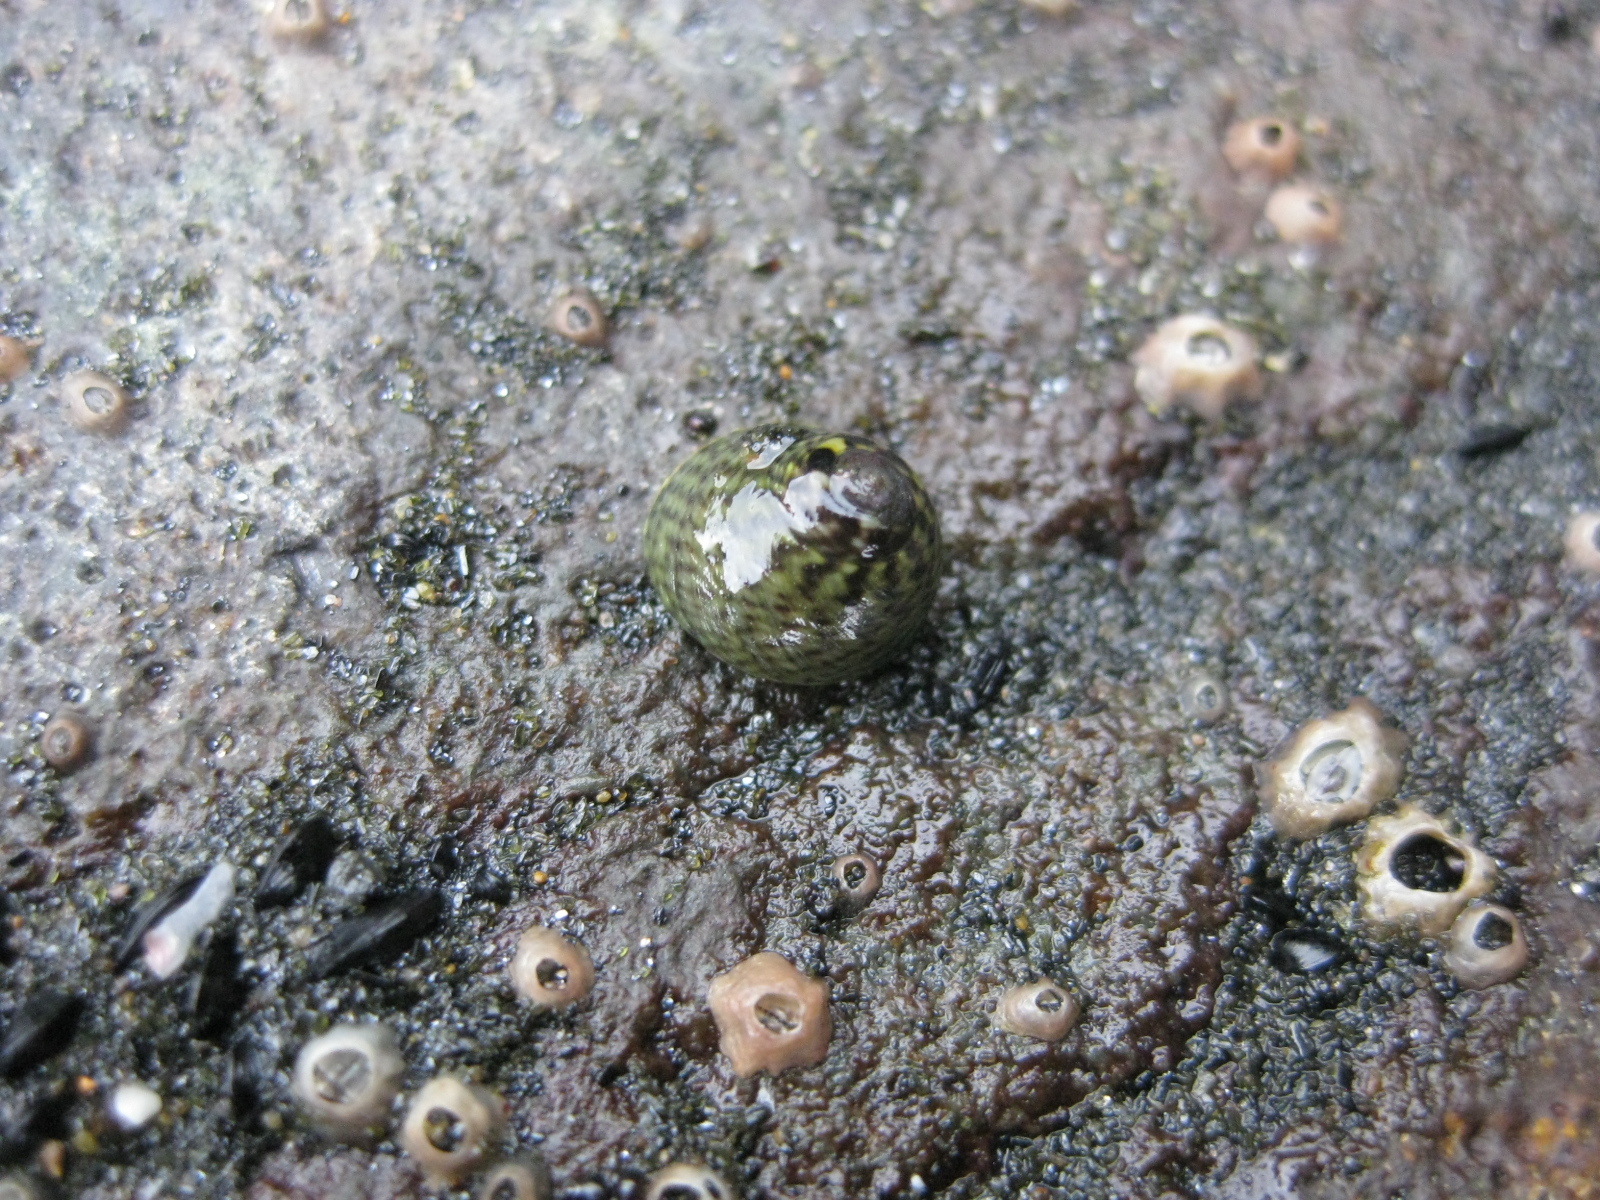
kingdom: Animalia
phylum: Mollusca
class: Gastropoda
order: Trochida
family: Trochidae
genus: Micrelenchus
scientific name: Micrelenchus tessellatus
